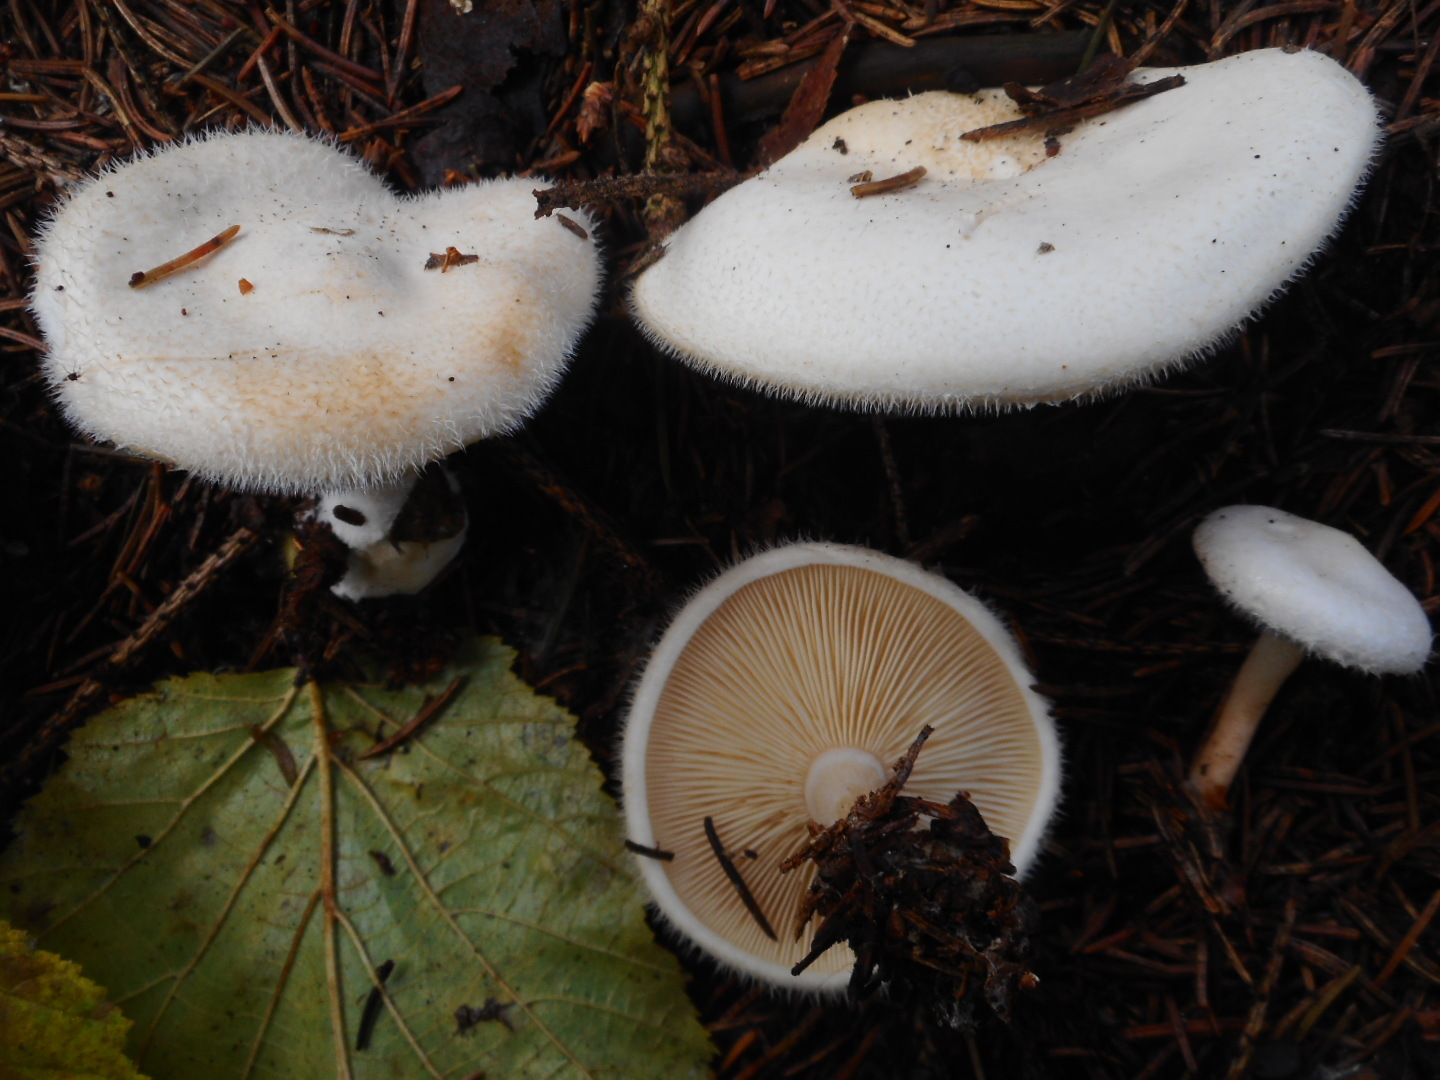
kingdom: Fungi
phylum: Basidiomycota
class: Agaricomycetes
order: Agaricales
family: Tricholomataceae
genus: Ripartites
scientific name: Ripartites tricholoma
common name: Bearded seamine
